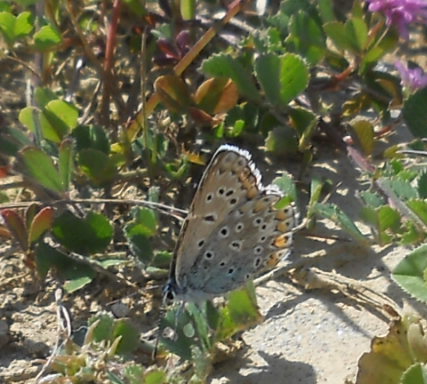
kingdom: Animalia
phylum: Arthropoda
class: Insecta
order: Lepidoptera
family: Lycaenidae
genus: Polyommatus
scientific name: Polyommatus icarus
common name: Common blue
